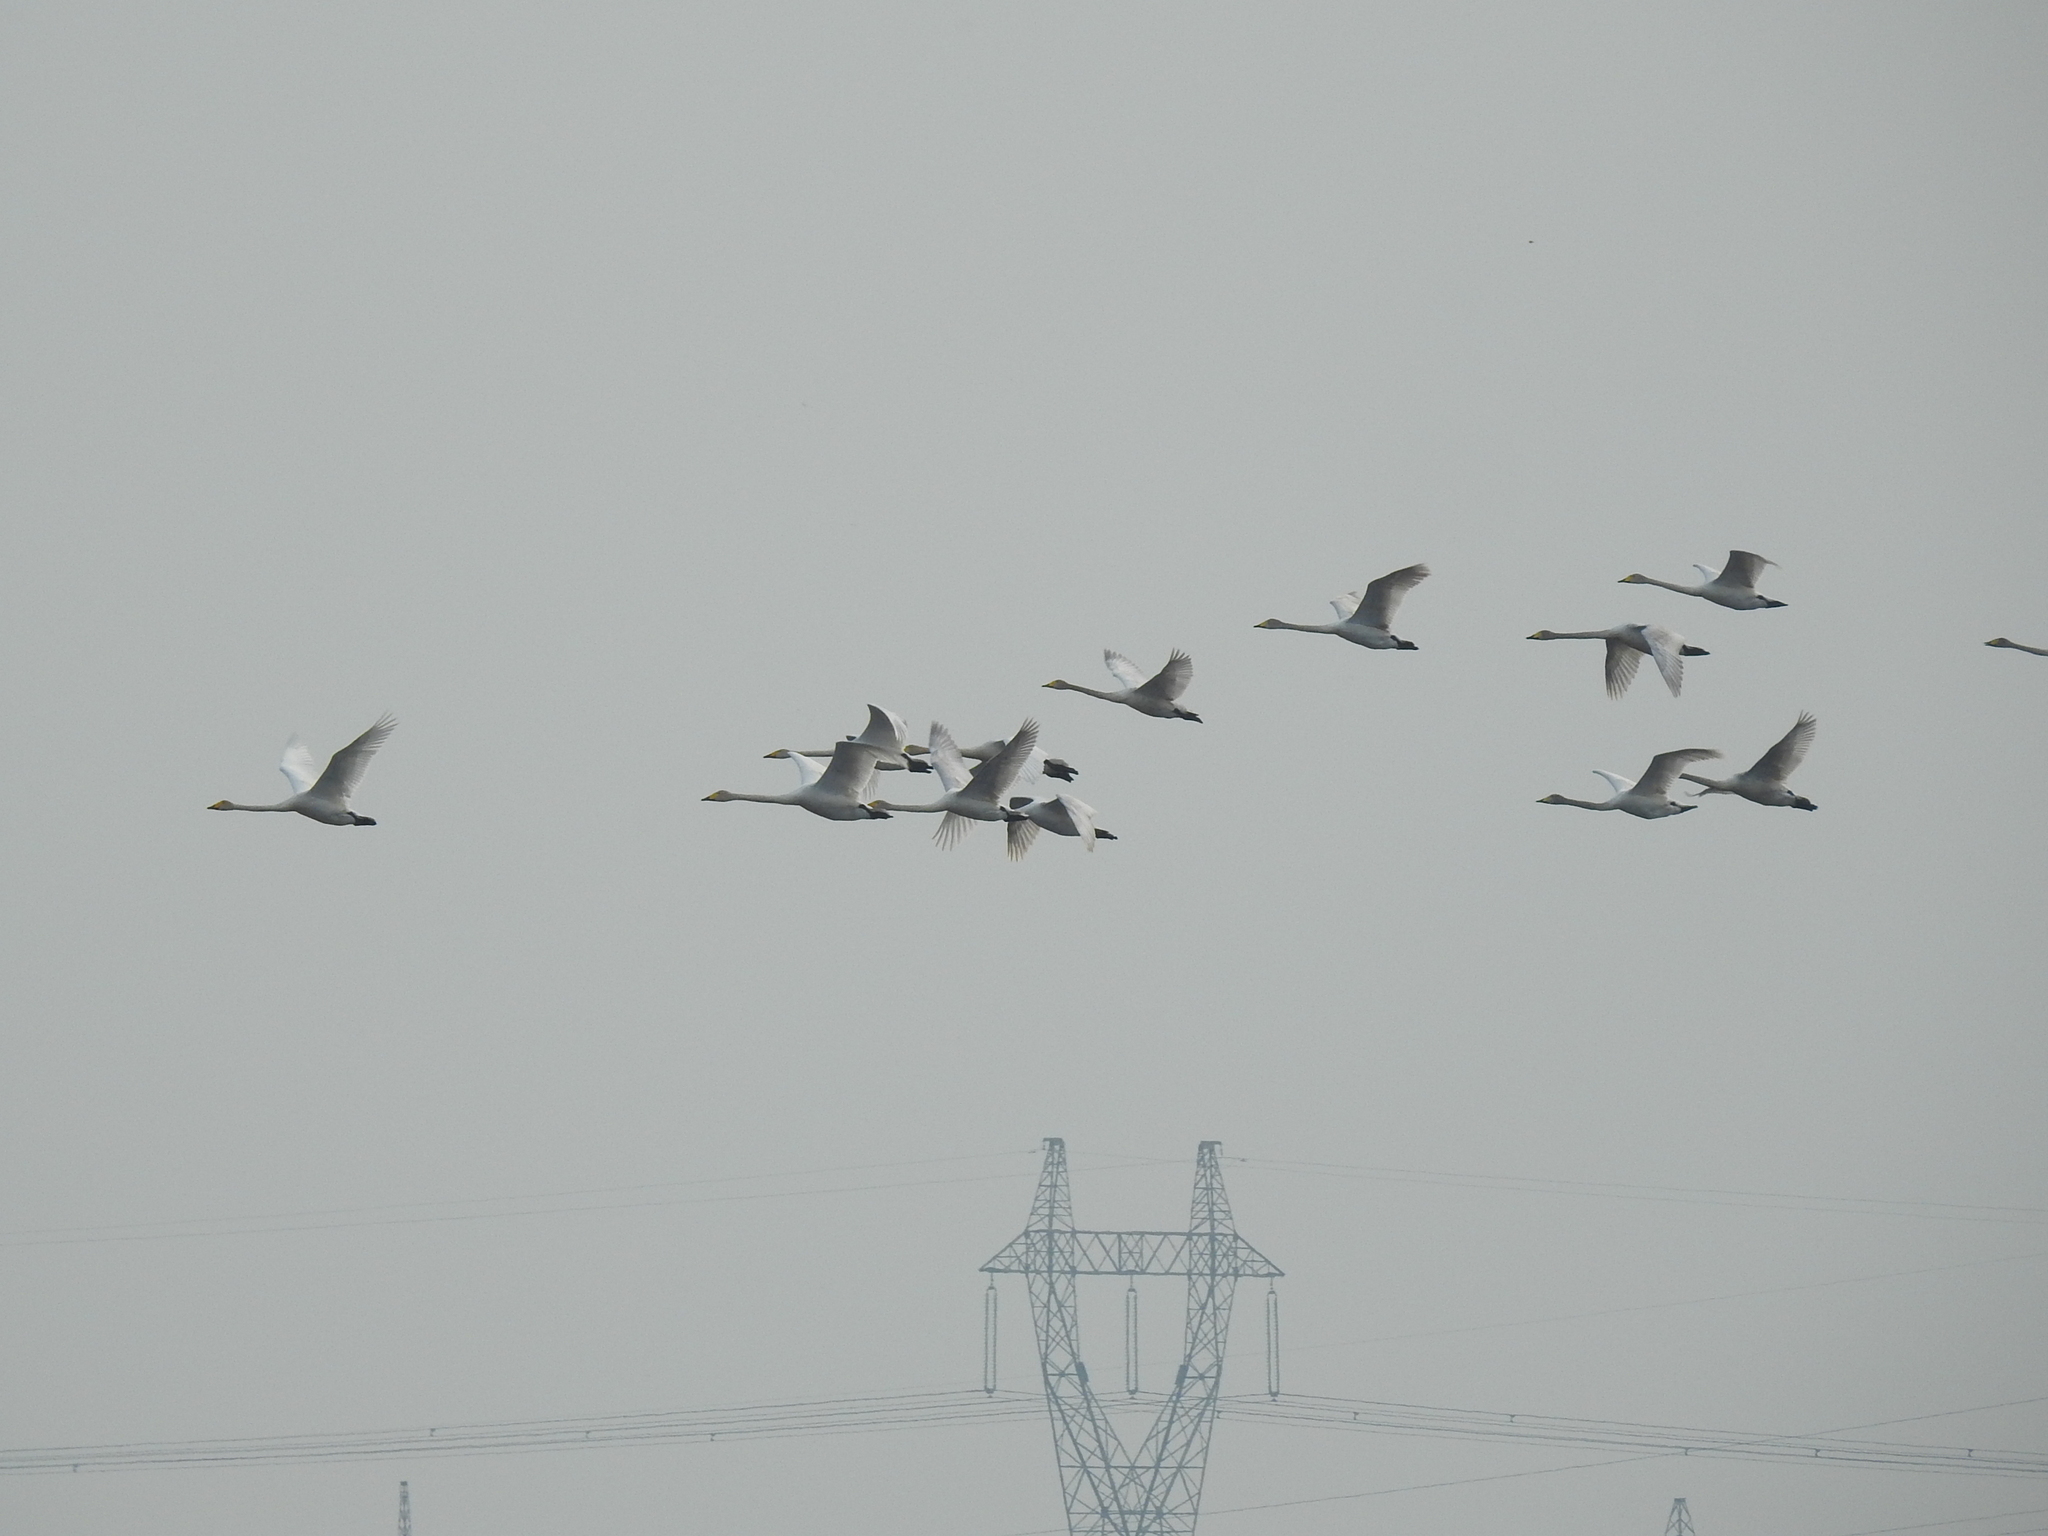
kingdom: Animalia
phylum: Chordata
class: Aves
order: Anseriformes
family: Anatidae
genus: Cygnus
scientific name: Cygnus cygnus
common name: Whooper swan
